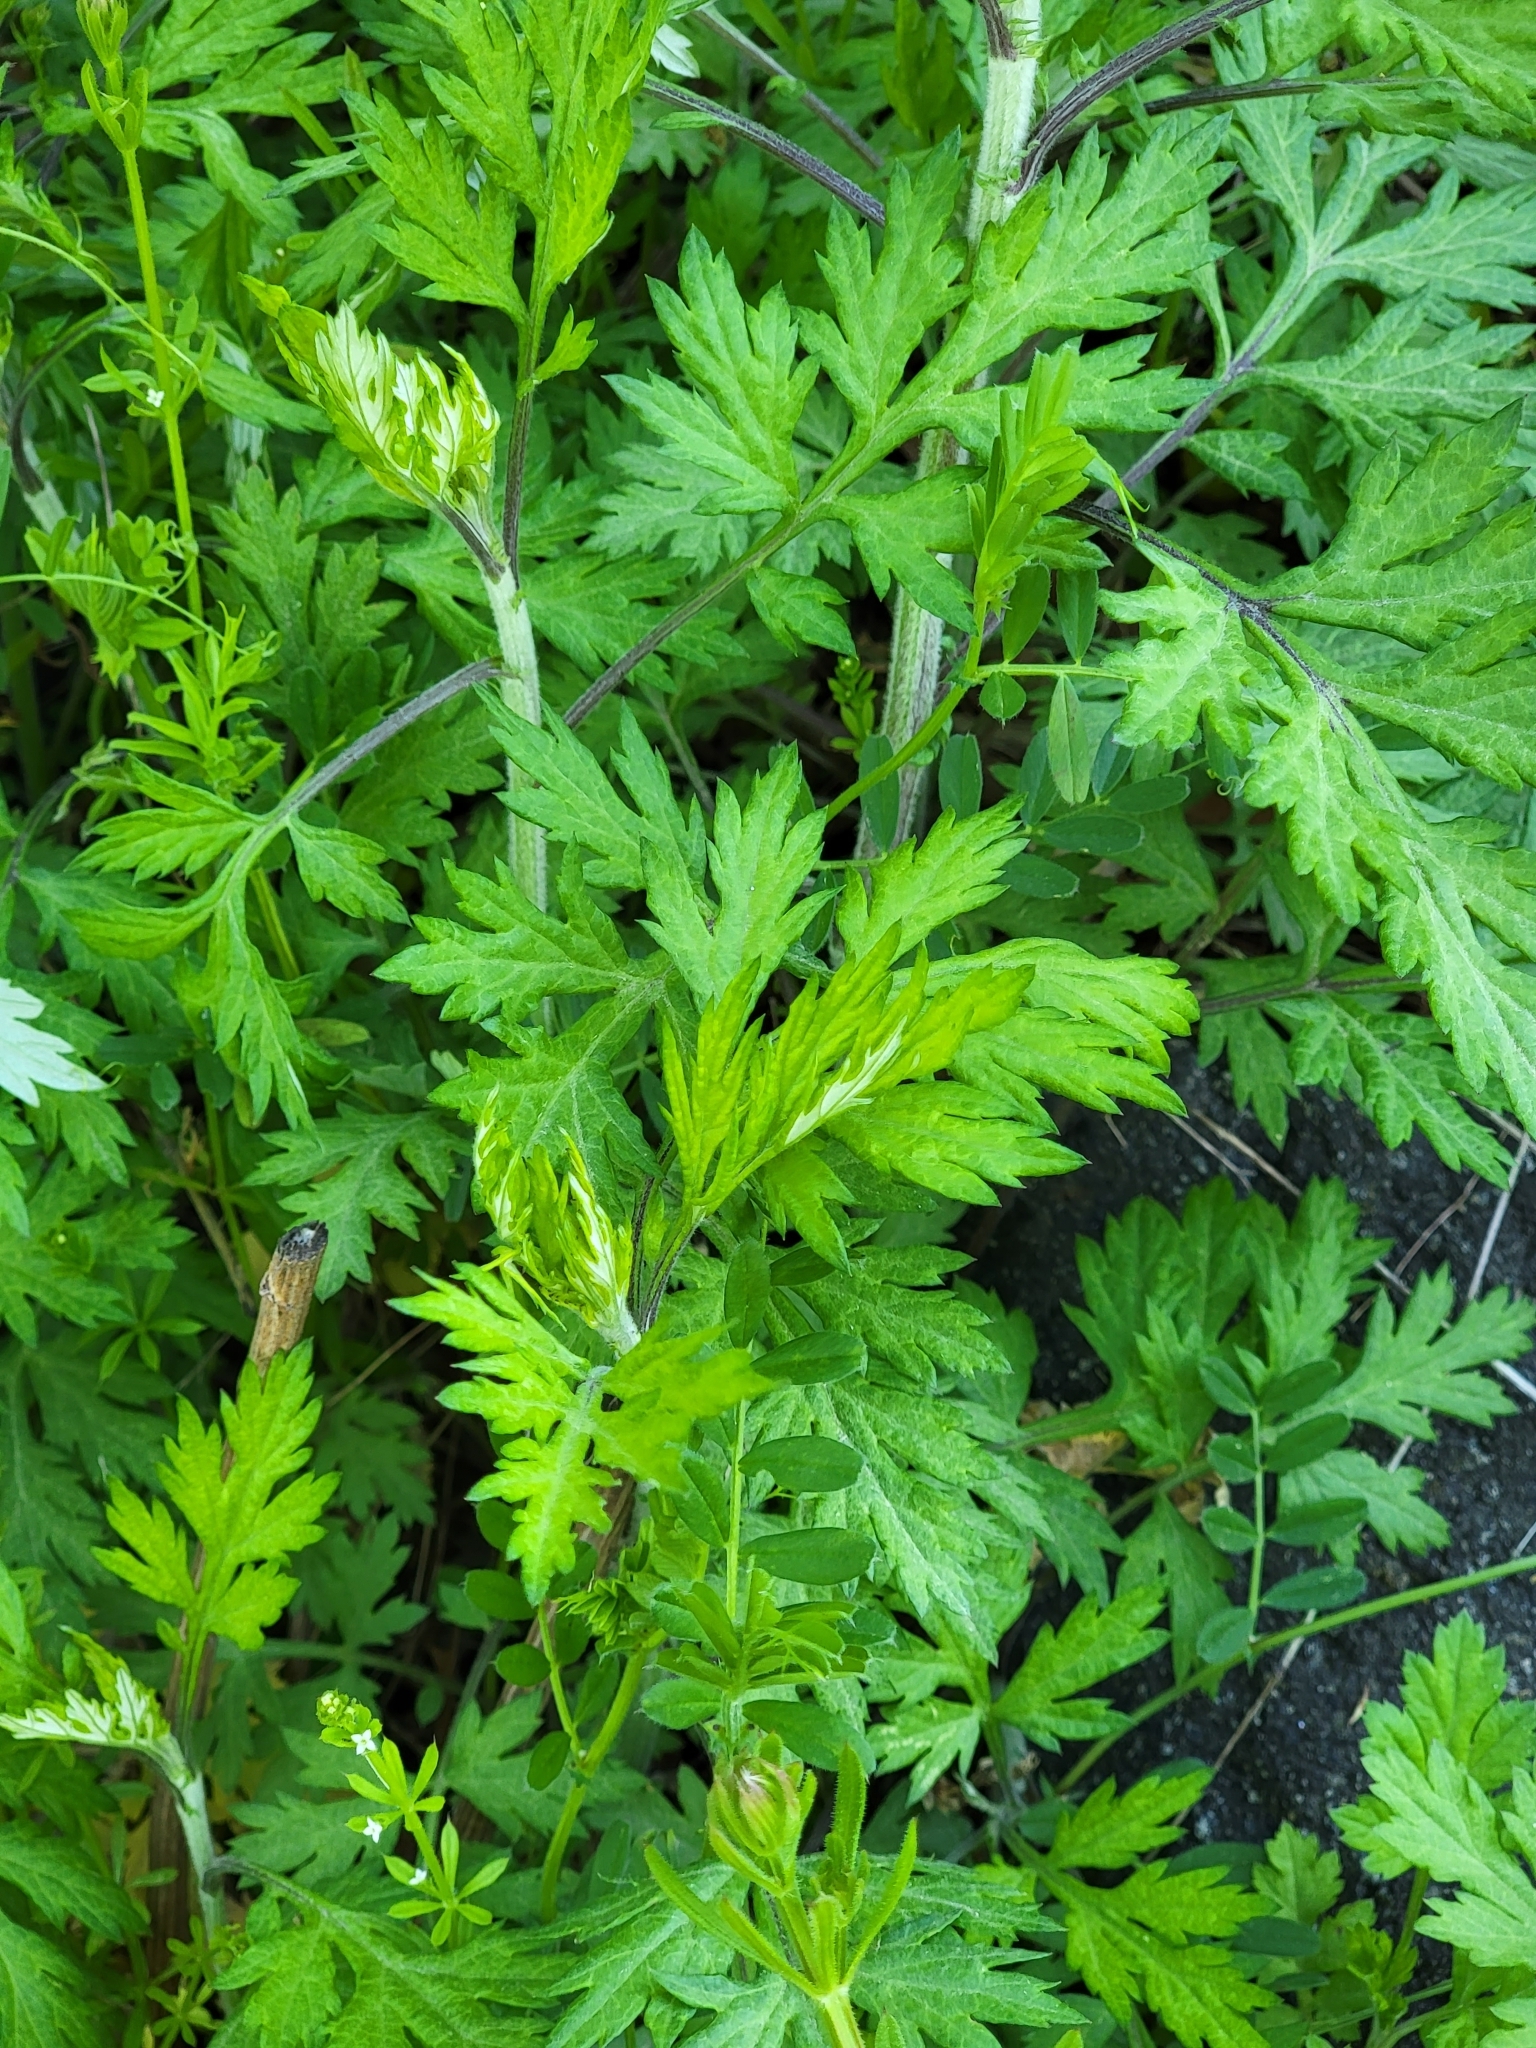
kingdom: Plantae
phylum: Tracheophyta
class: Magnoliopsida
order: Asterales
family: Asteraceae
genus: Artemisia
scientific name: Artemisia vulgaris
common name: Mugwort
